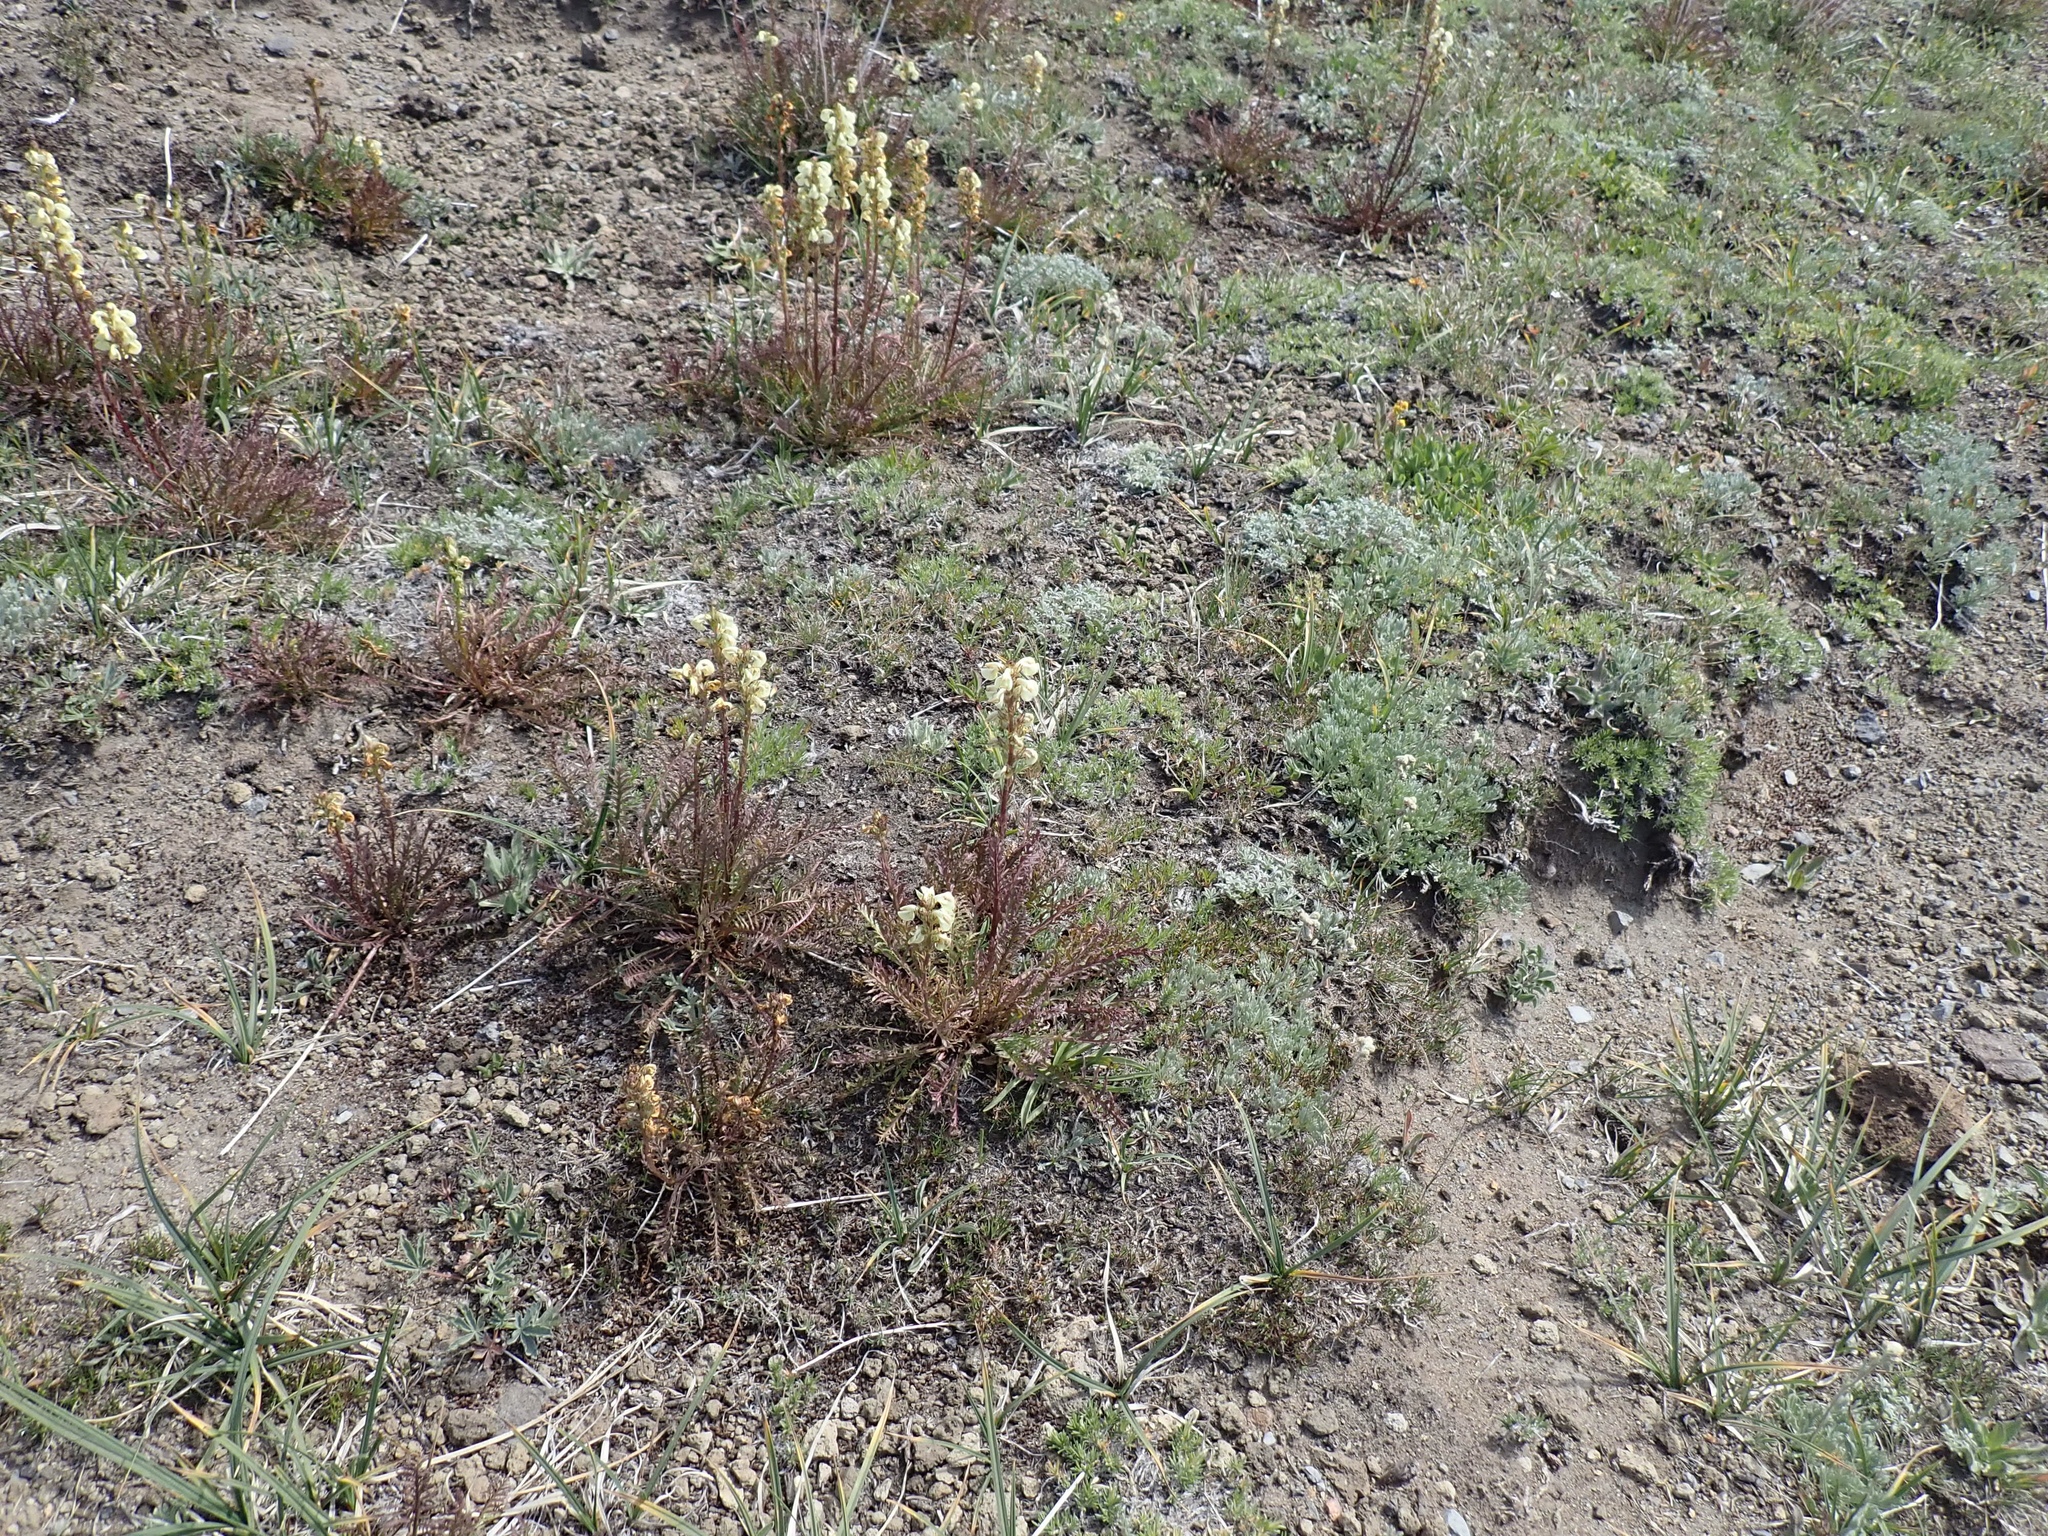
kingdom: Plantae
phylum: Tracheophyta
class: Magnoliopsida
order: Lamiales
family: Orobanchaceae
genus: Pedicularis
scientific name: Pedicularis contorta
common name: Coiled lousewort
